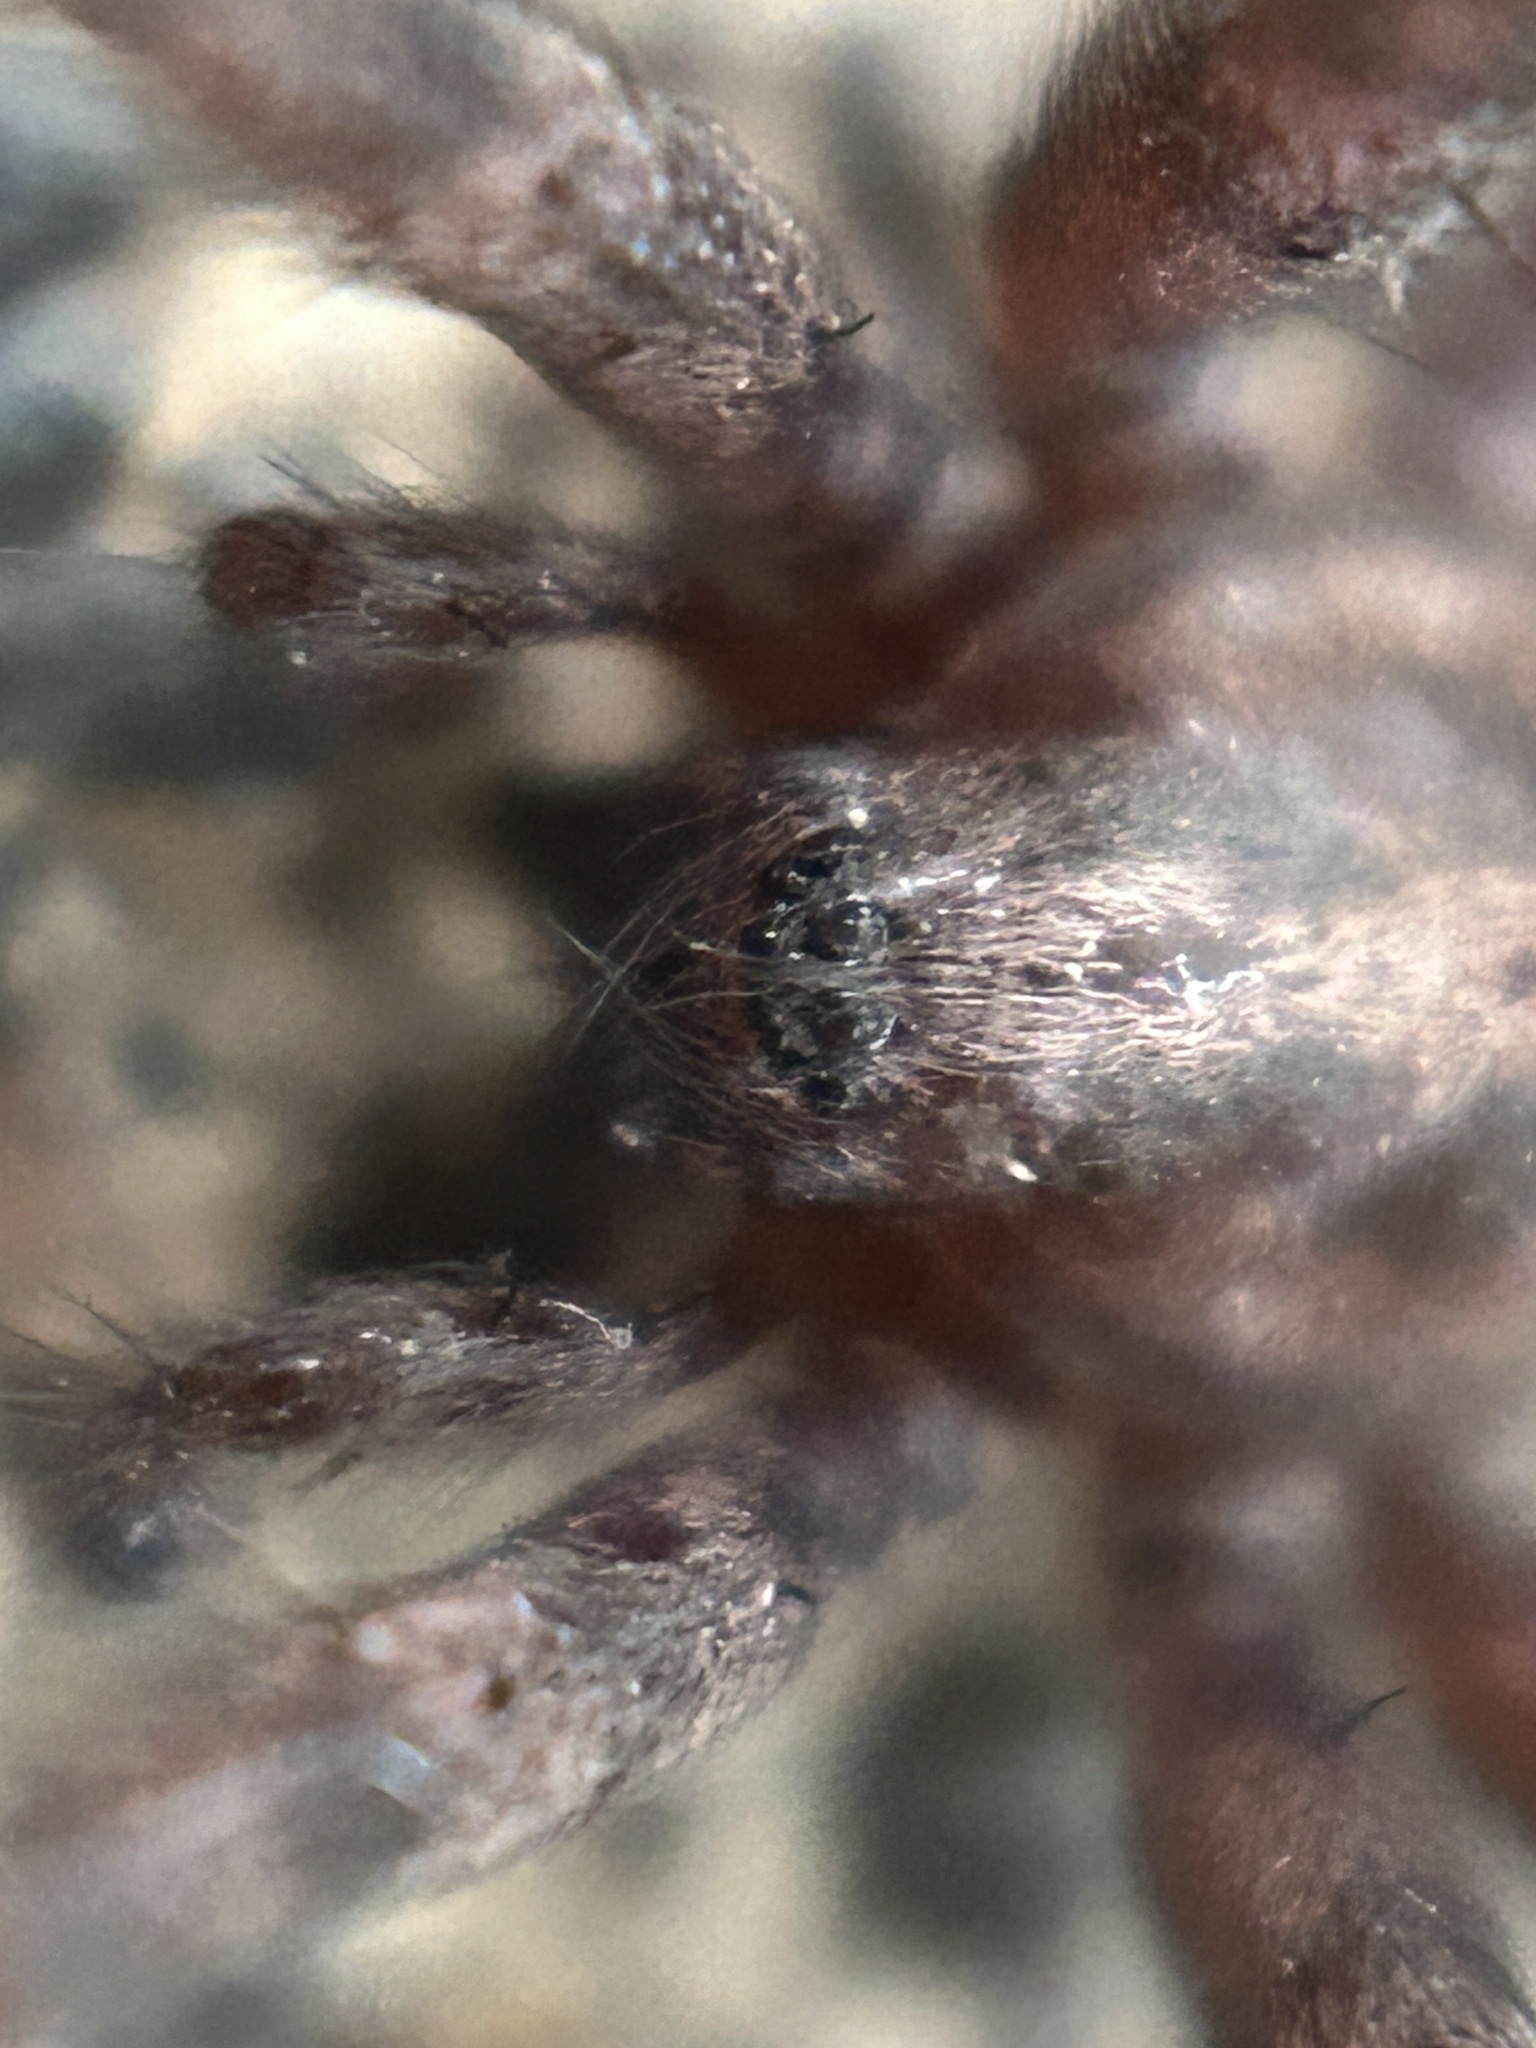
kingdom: Animalia
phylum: Arthropoda
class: Arachnida
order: Araneae
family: Agelenidae
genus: Tegenaria
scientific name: Tegenaria domestica
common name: Barn funnel weaver
